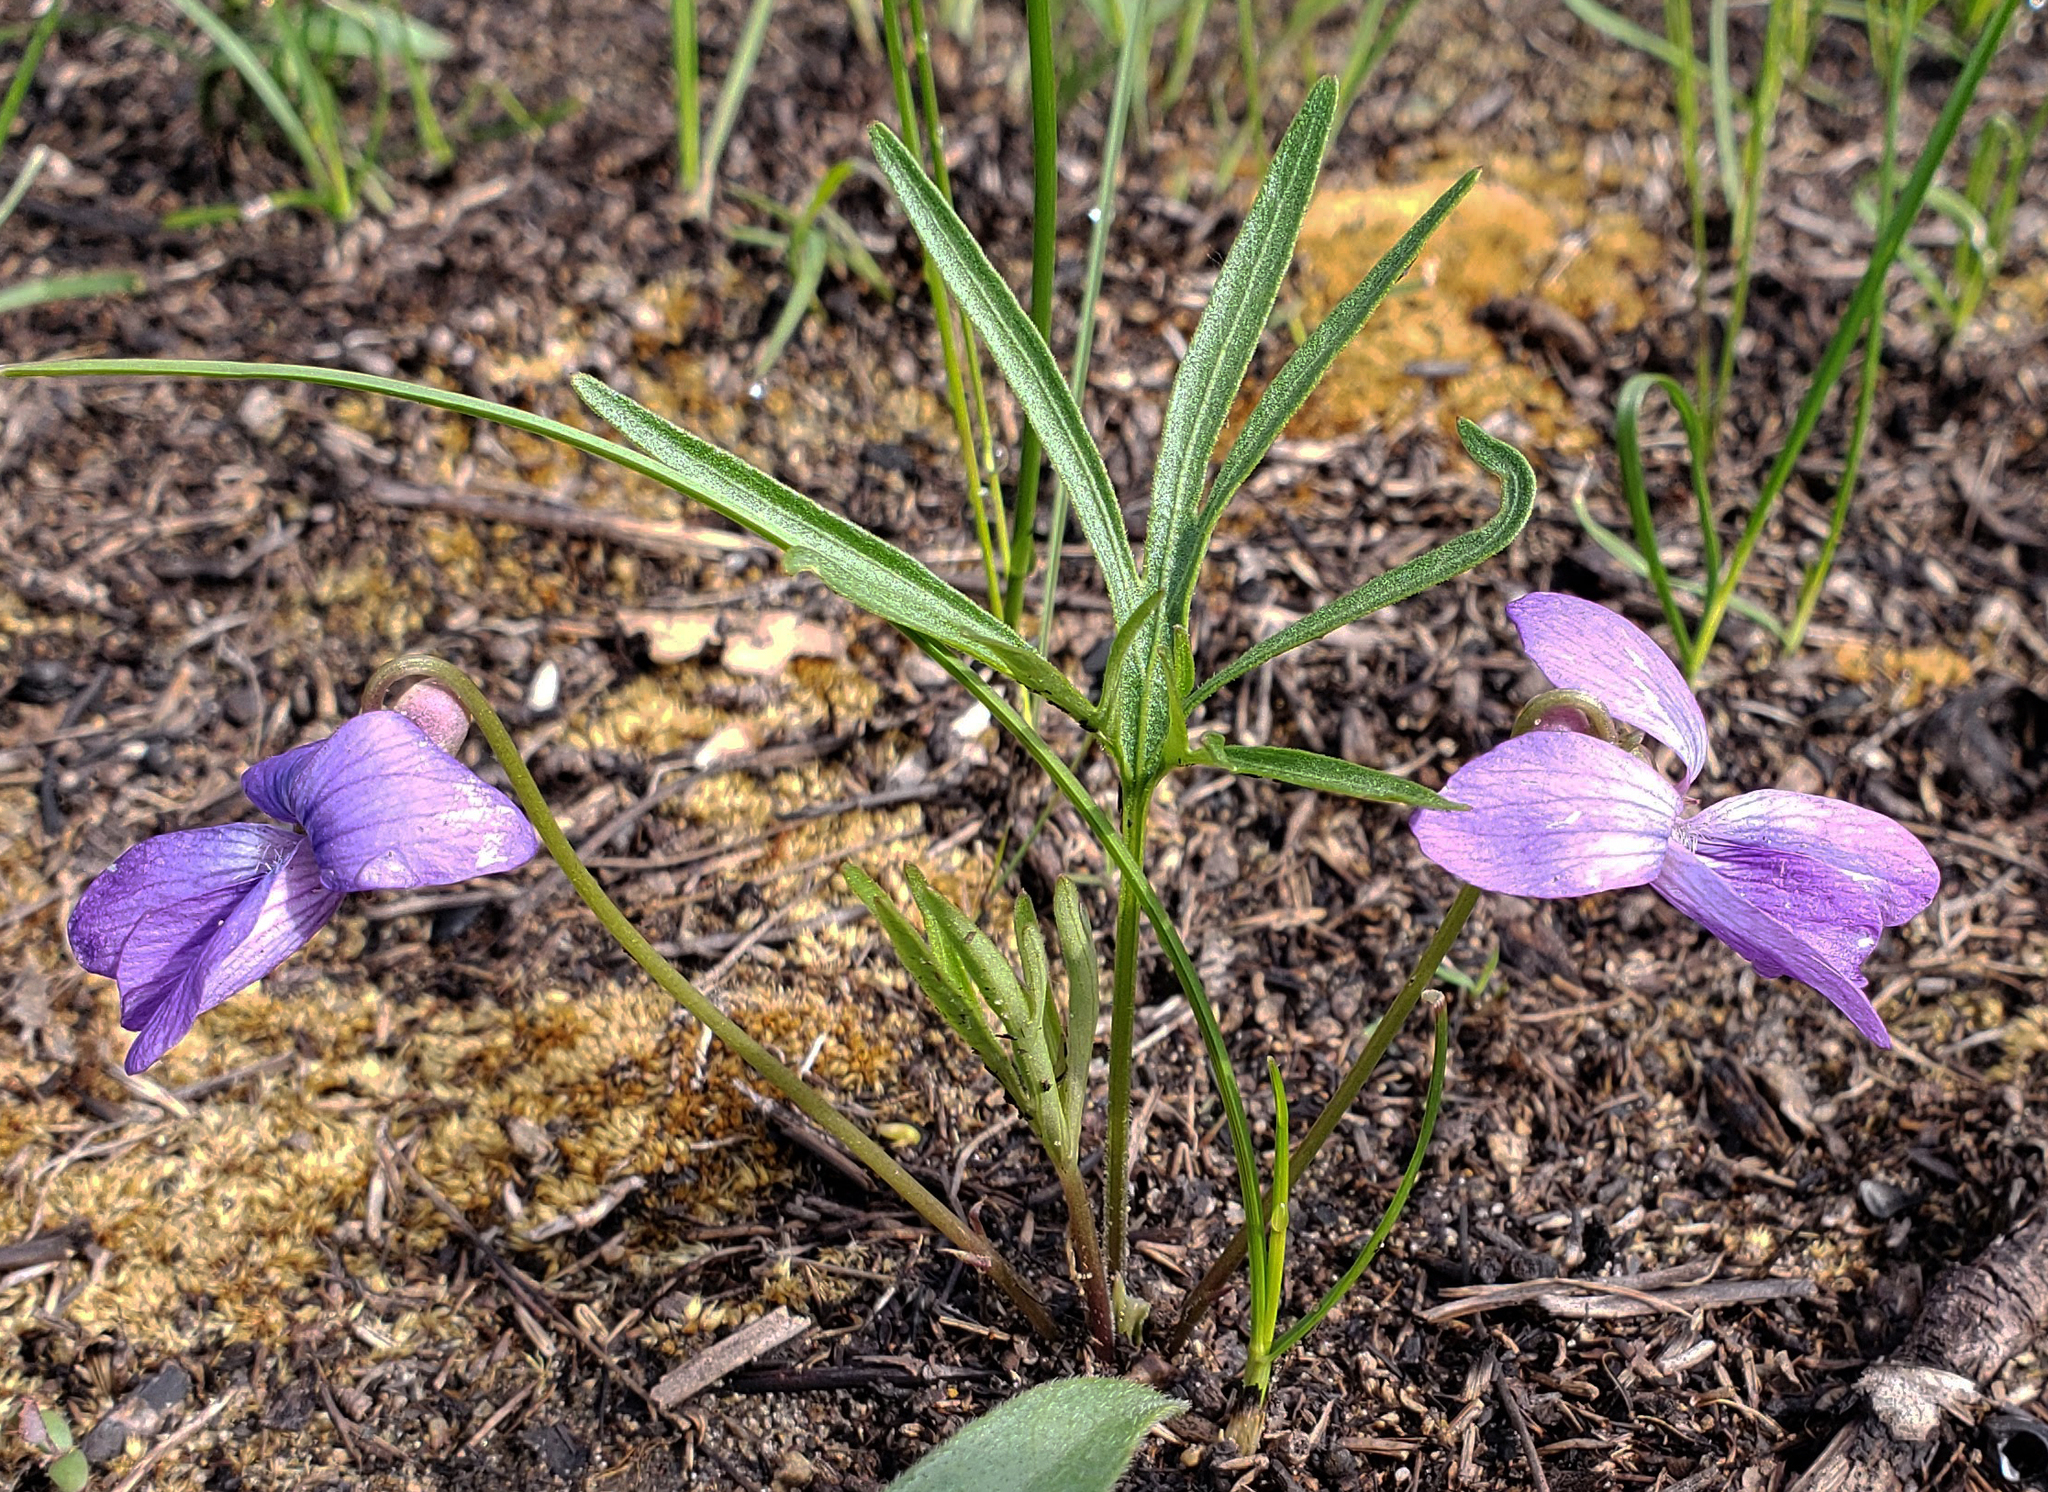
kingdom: Plantae
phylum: Tracheophyta
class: Magnoliopsida
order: Malpighiales
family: Violaceae
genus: Viola
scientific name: Viola pedatifida
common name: Prairie violet
